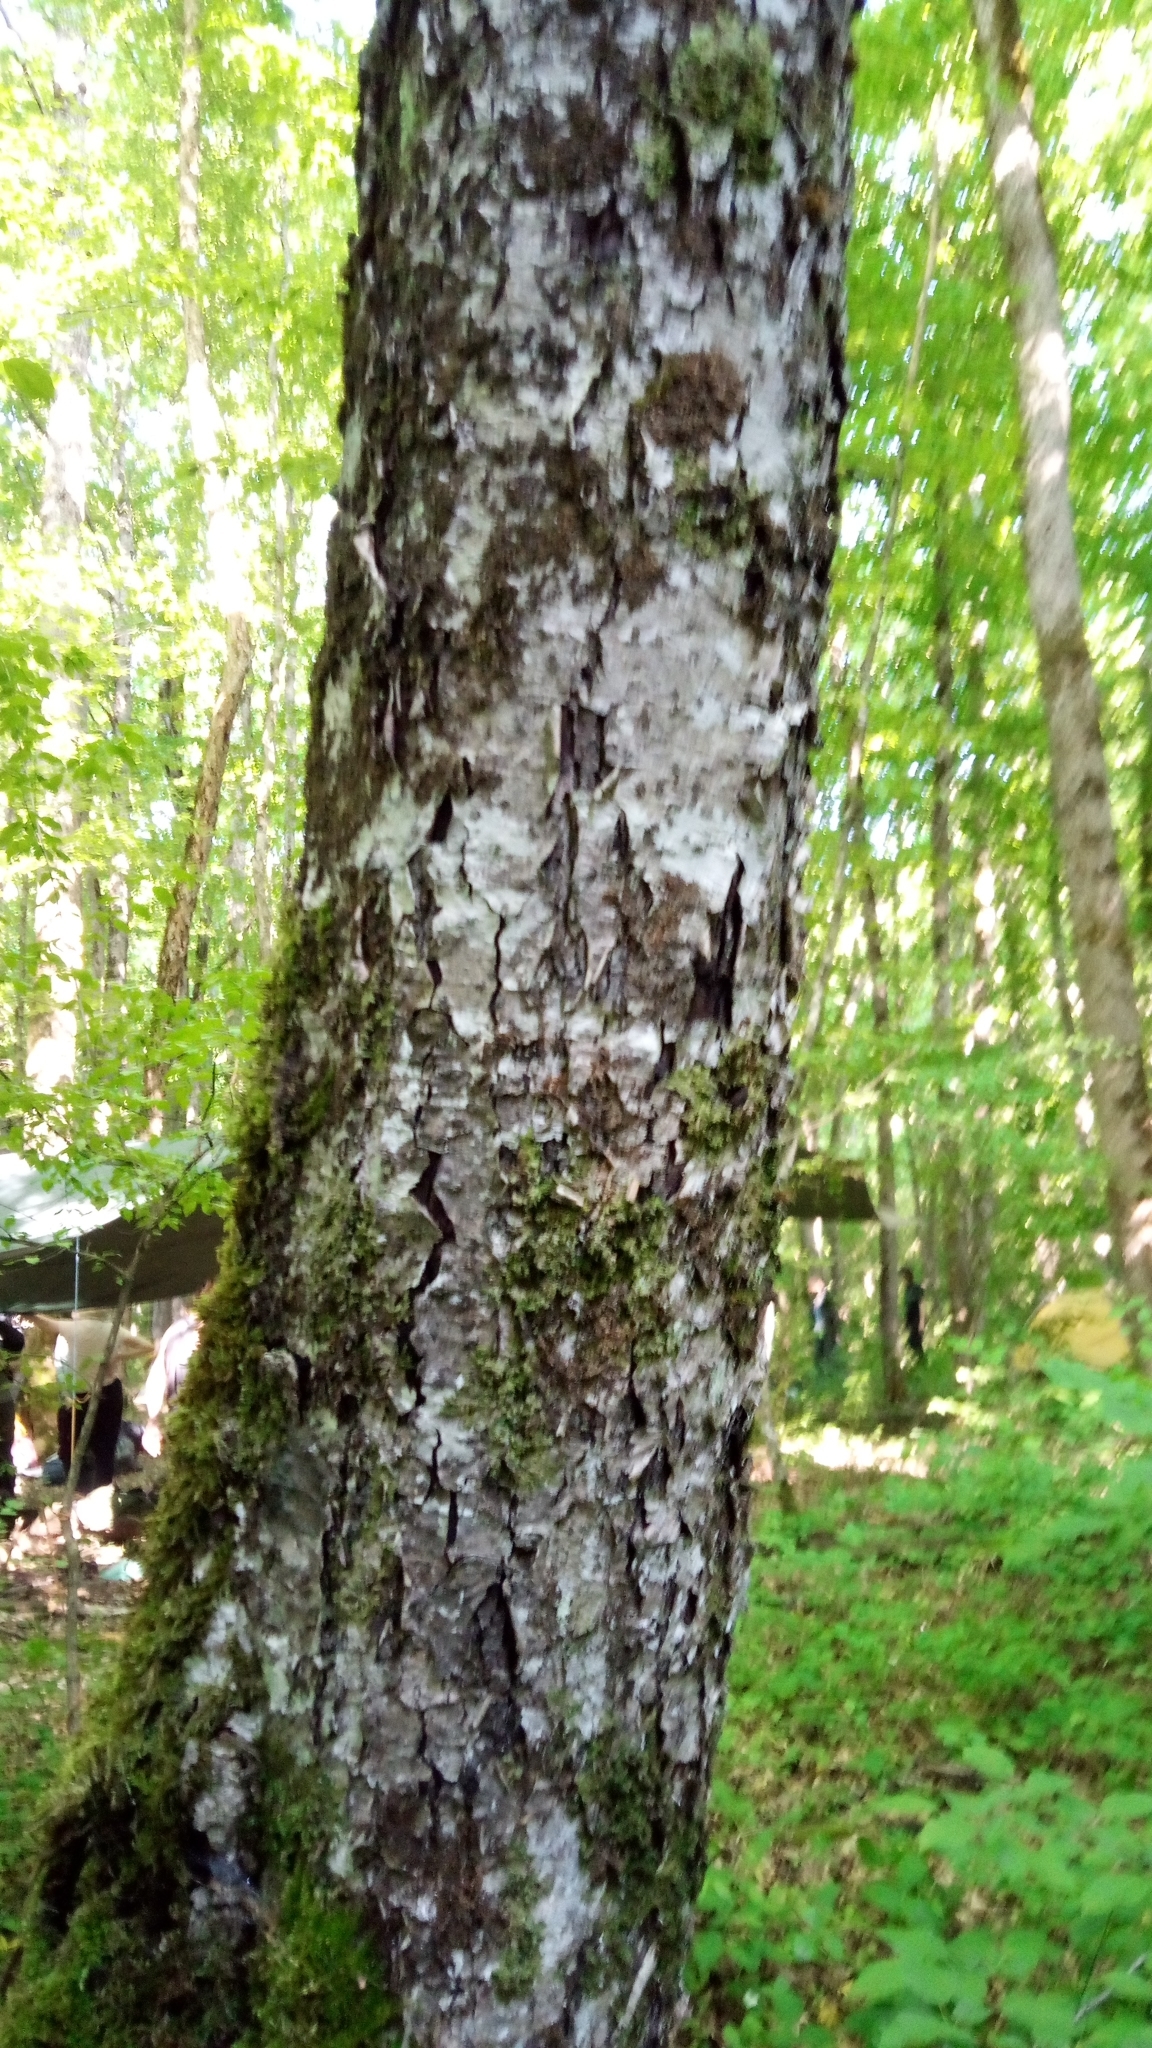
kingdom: Plantae
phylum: Tracheophyta
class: Magnoliopsida
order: Rosales
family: Rosaceae
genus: Torminalis
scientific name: Torminalis glaberrima
